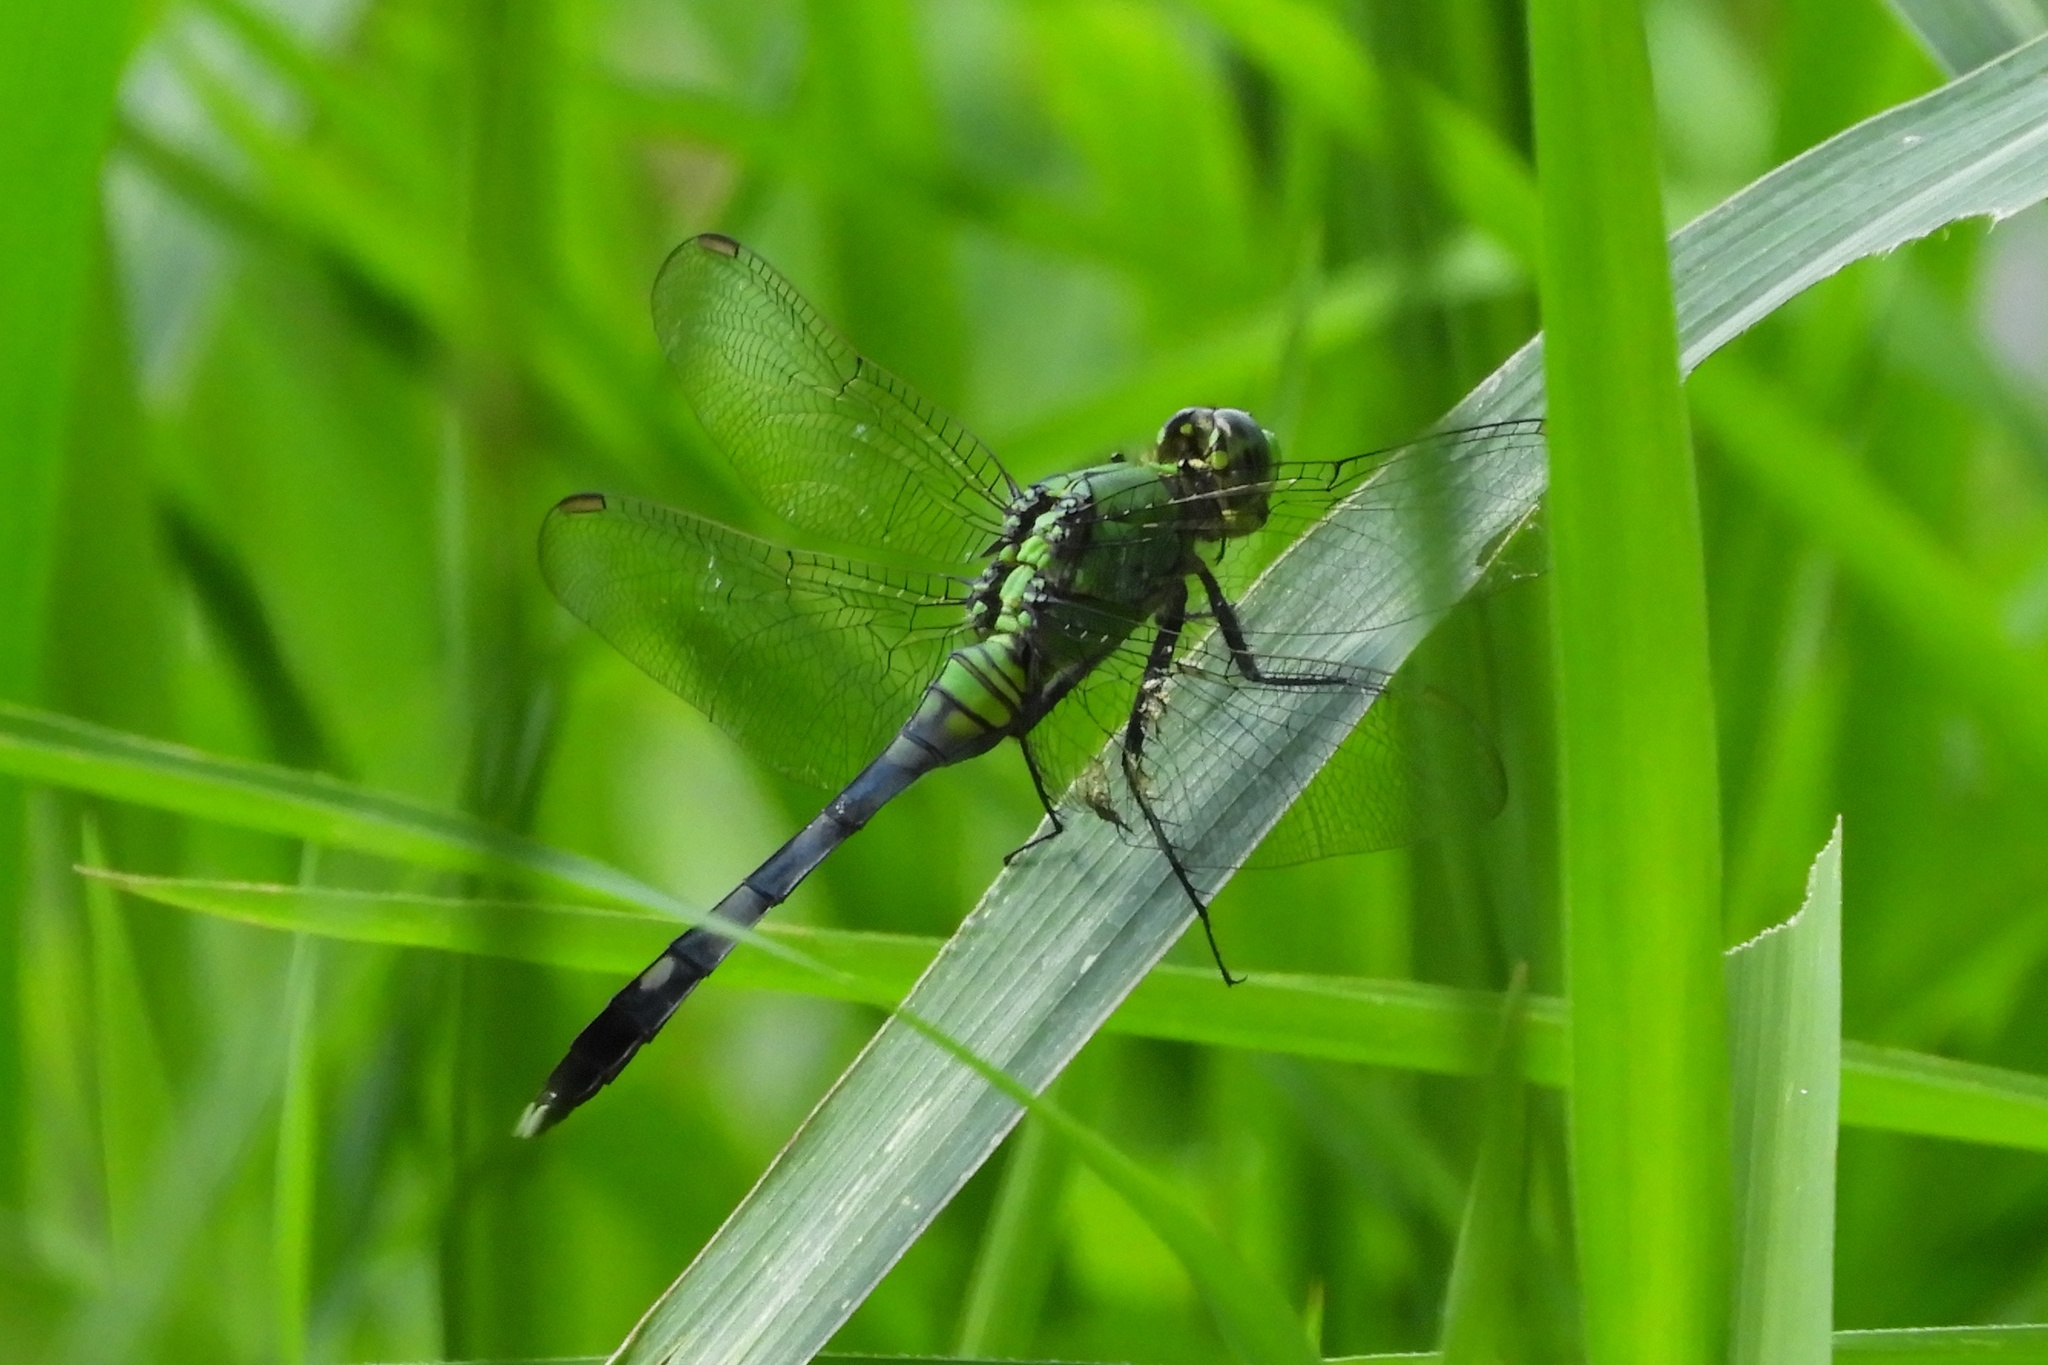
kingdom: Animalia
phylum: Arthropoda
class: Insecta
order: Odonata
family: Libellulidae
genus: Erythemis
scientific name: Erythemis simplicicollis
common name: Eastern pondhawk
